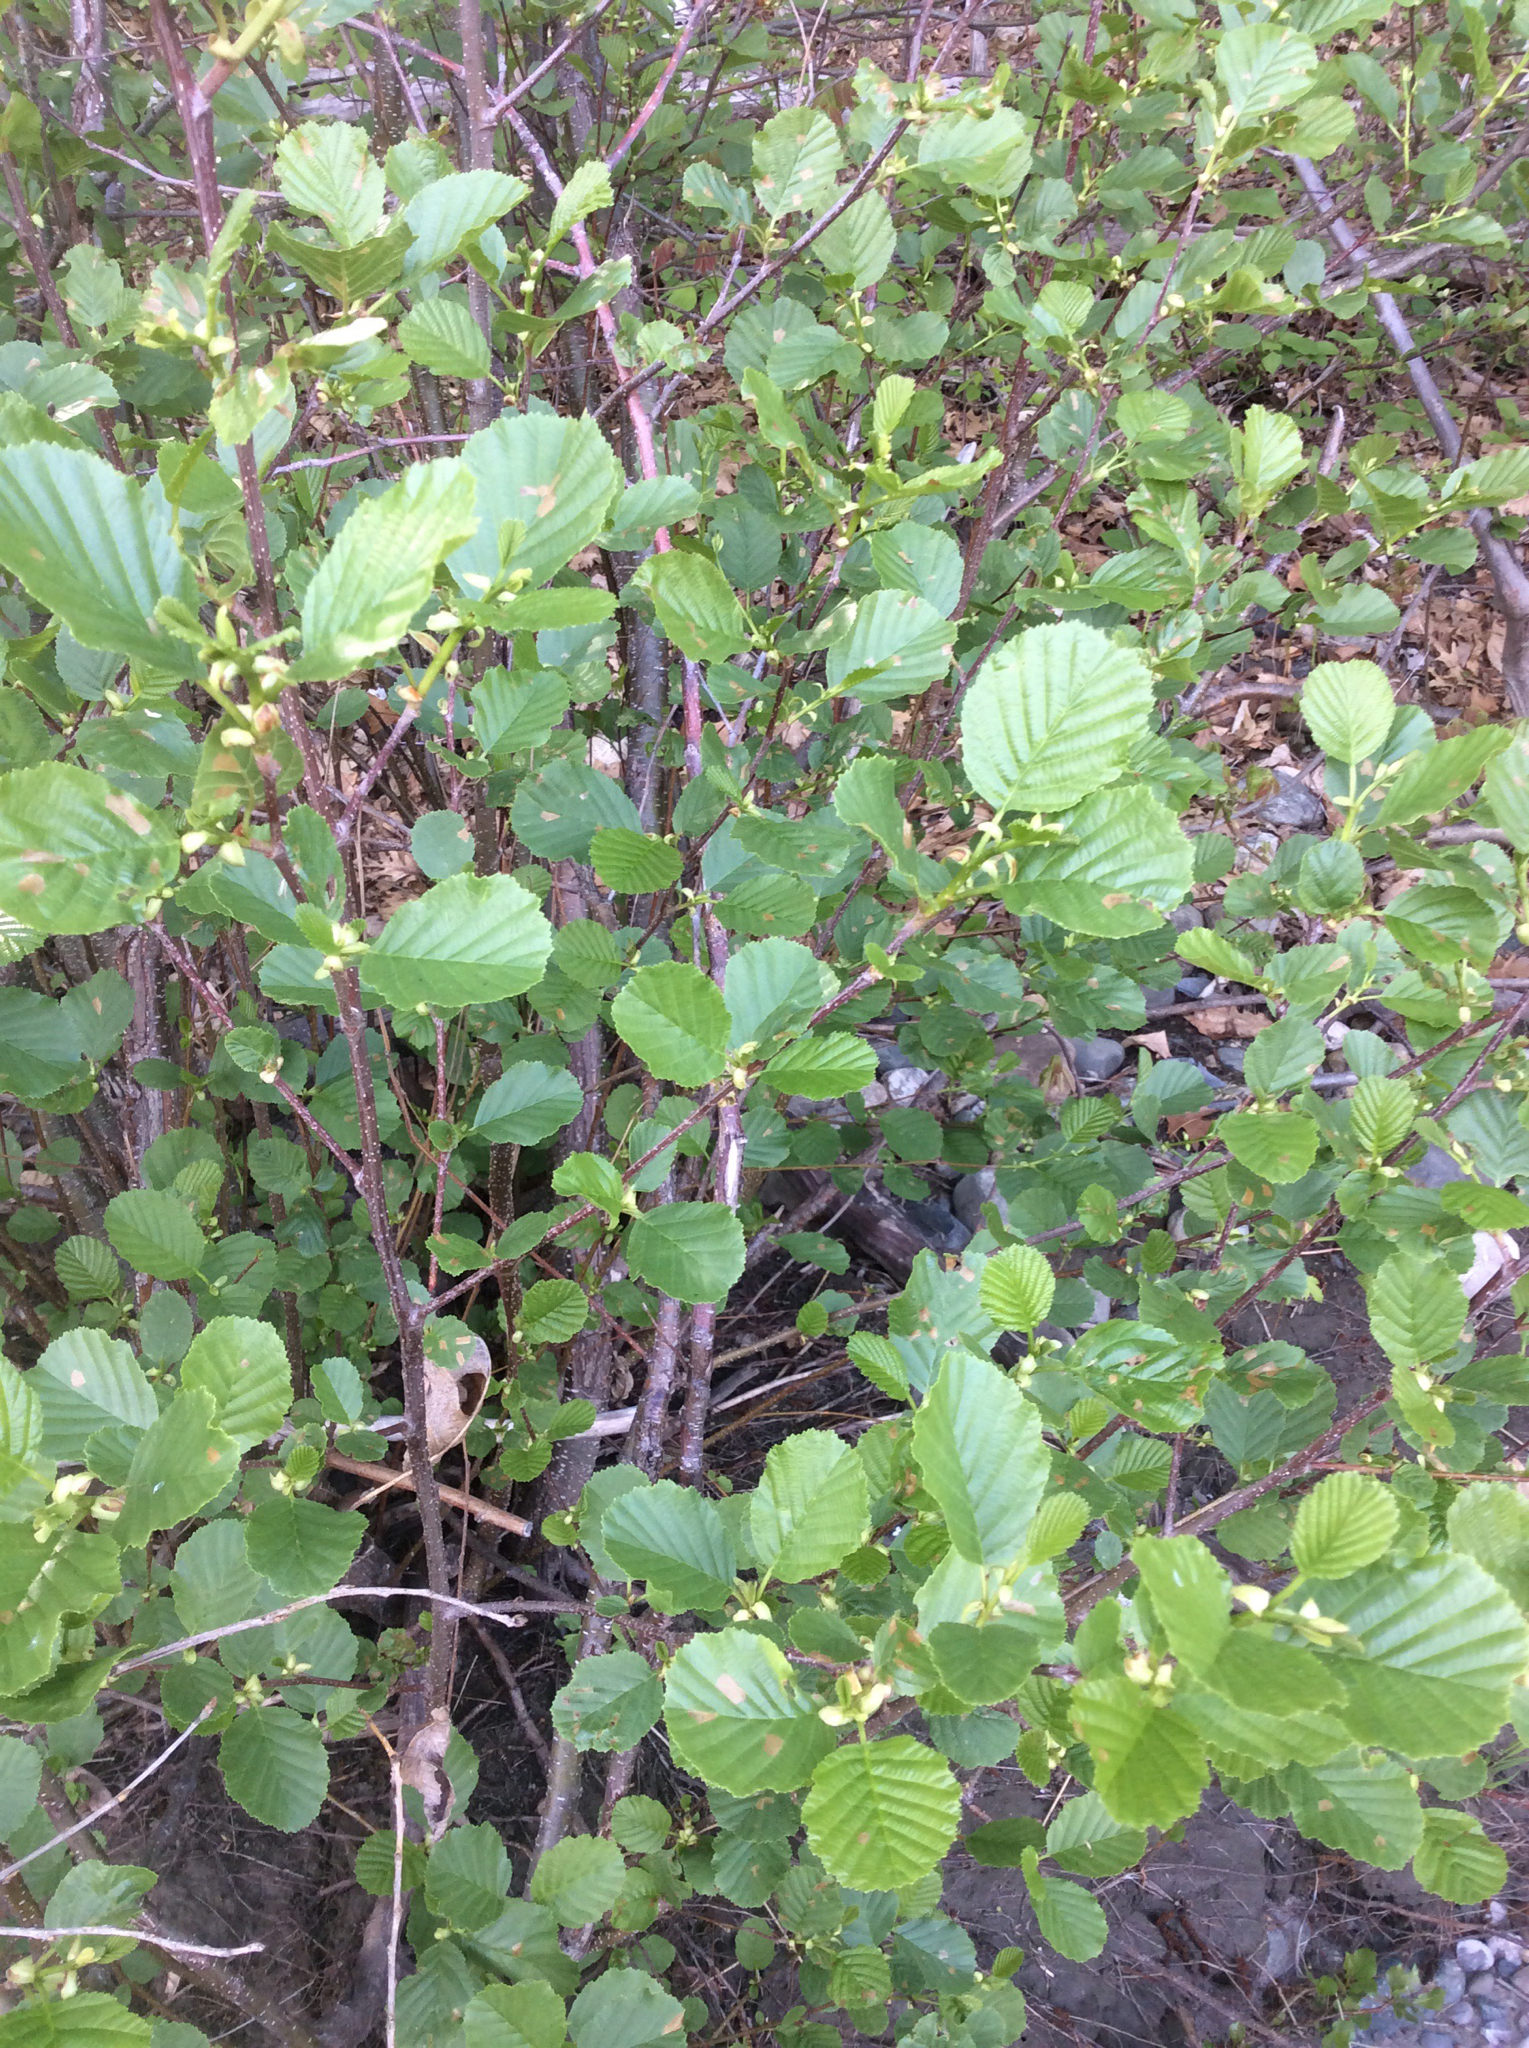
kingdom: Plantae
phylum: Tracheophyta
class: Magnoliopsida
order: Fagales
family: Betulaceae
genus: Alnus
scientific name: Alnus glutinosa
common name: Black alder
